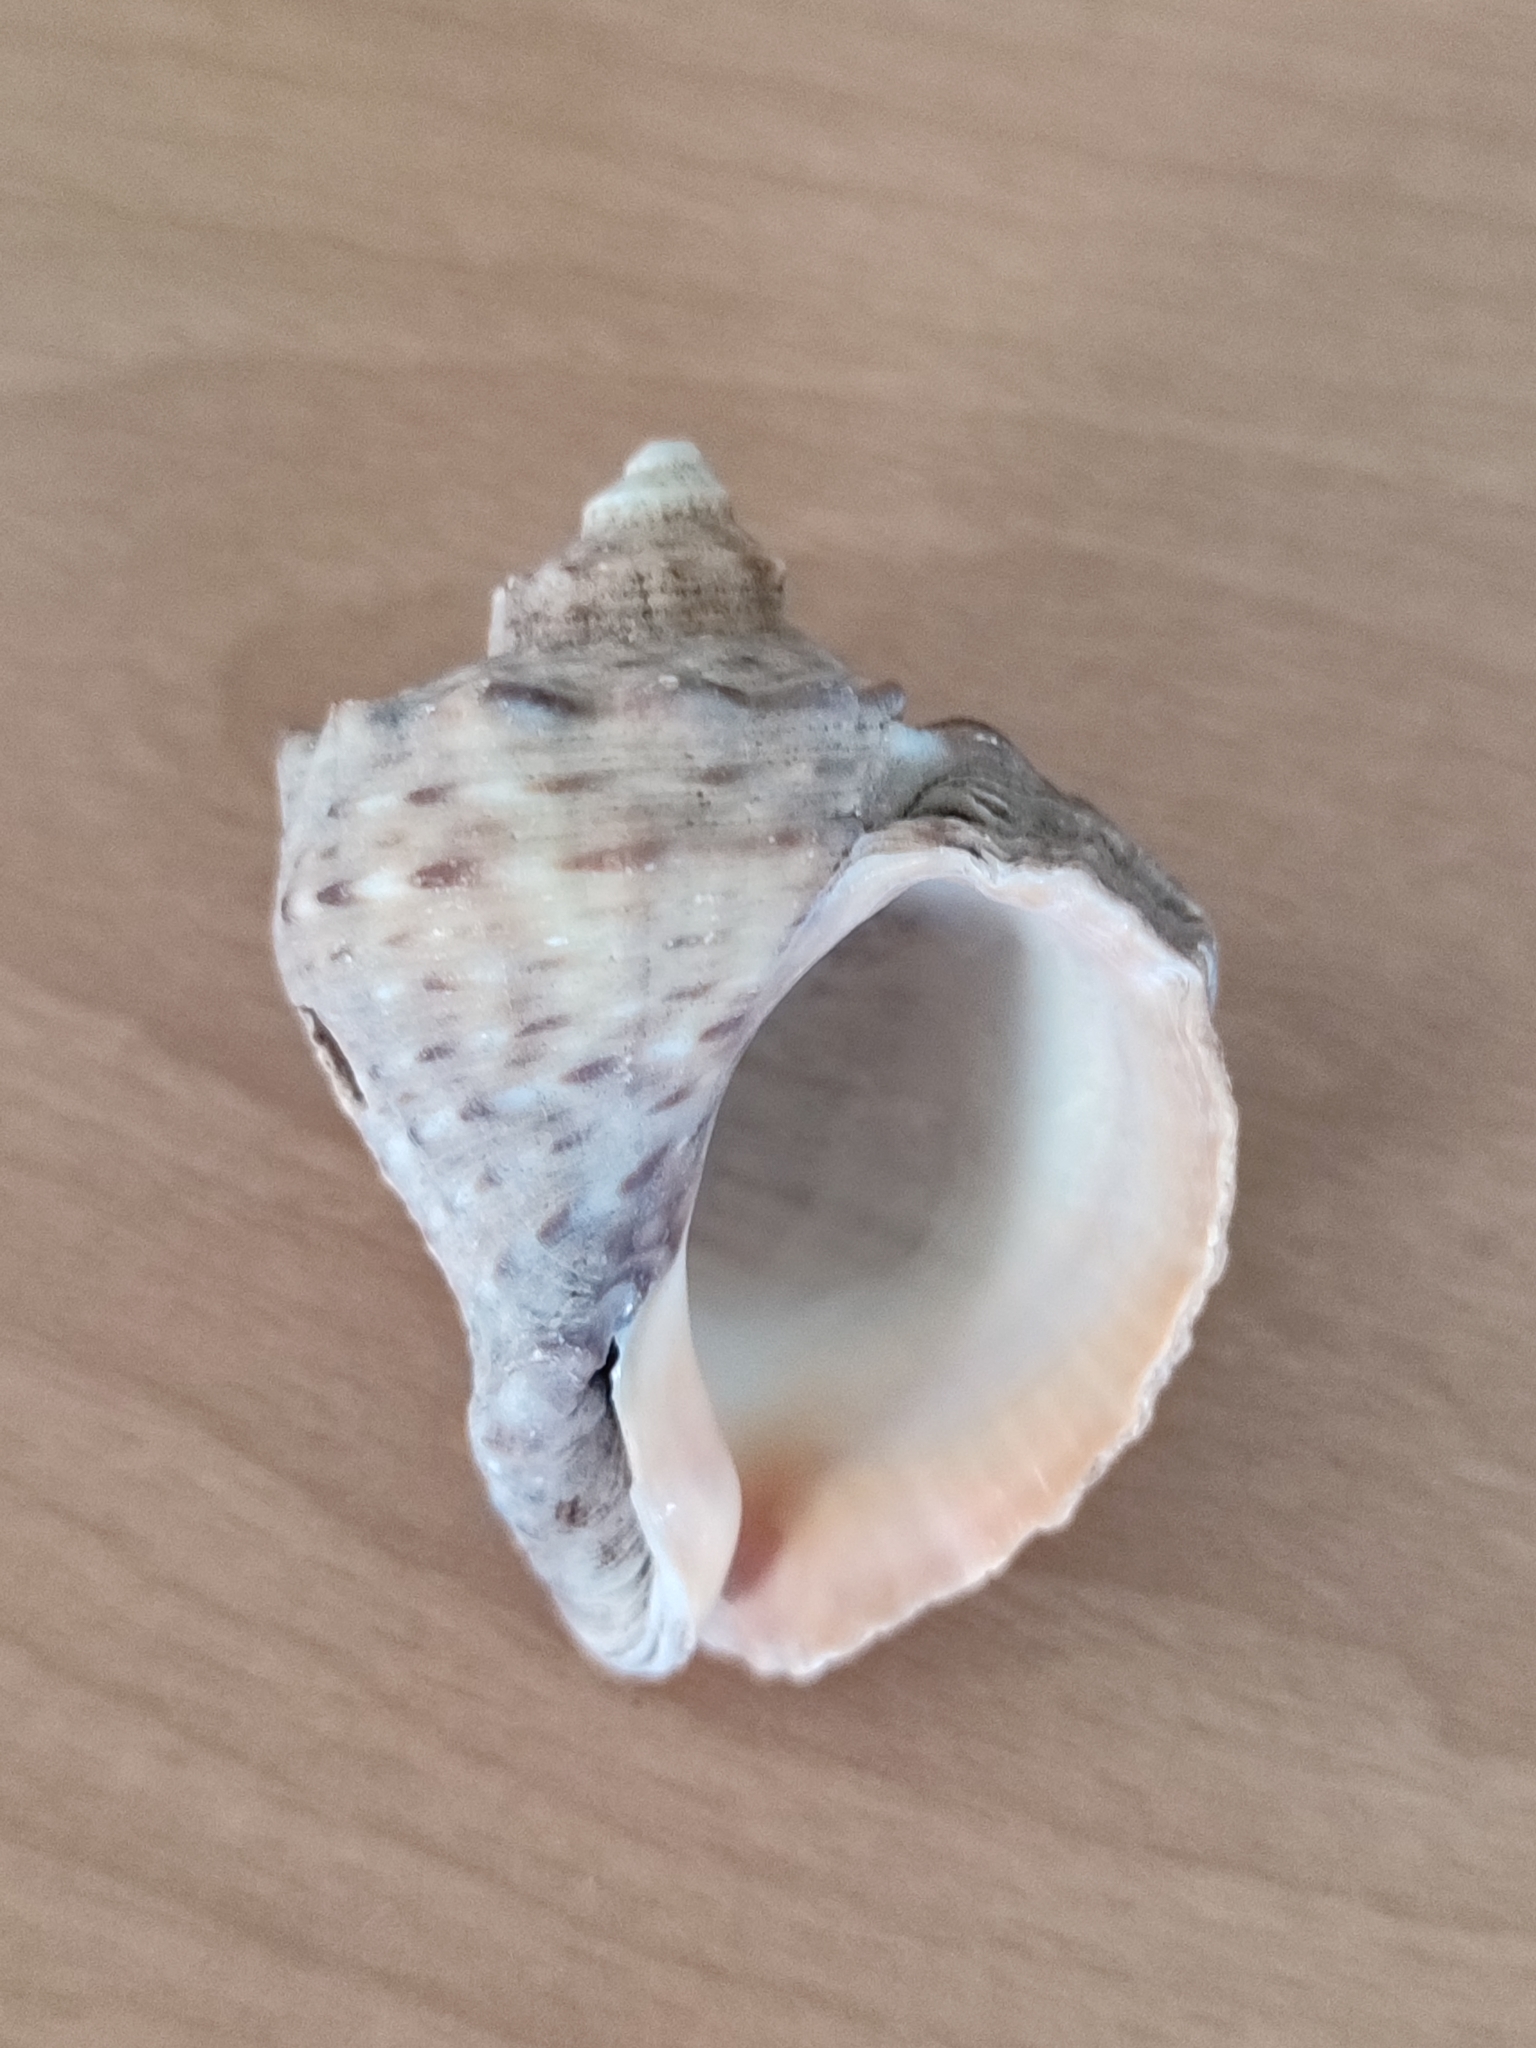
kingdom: Animalia
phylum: Mollusca
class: Gastropoda
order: Neogastropoda
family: Muricidae
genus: Rapana
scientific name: Rapana venosa
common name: Veined rapa whelk
